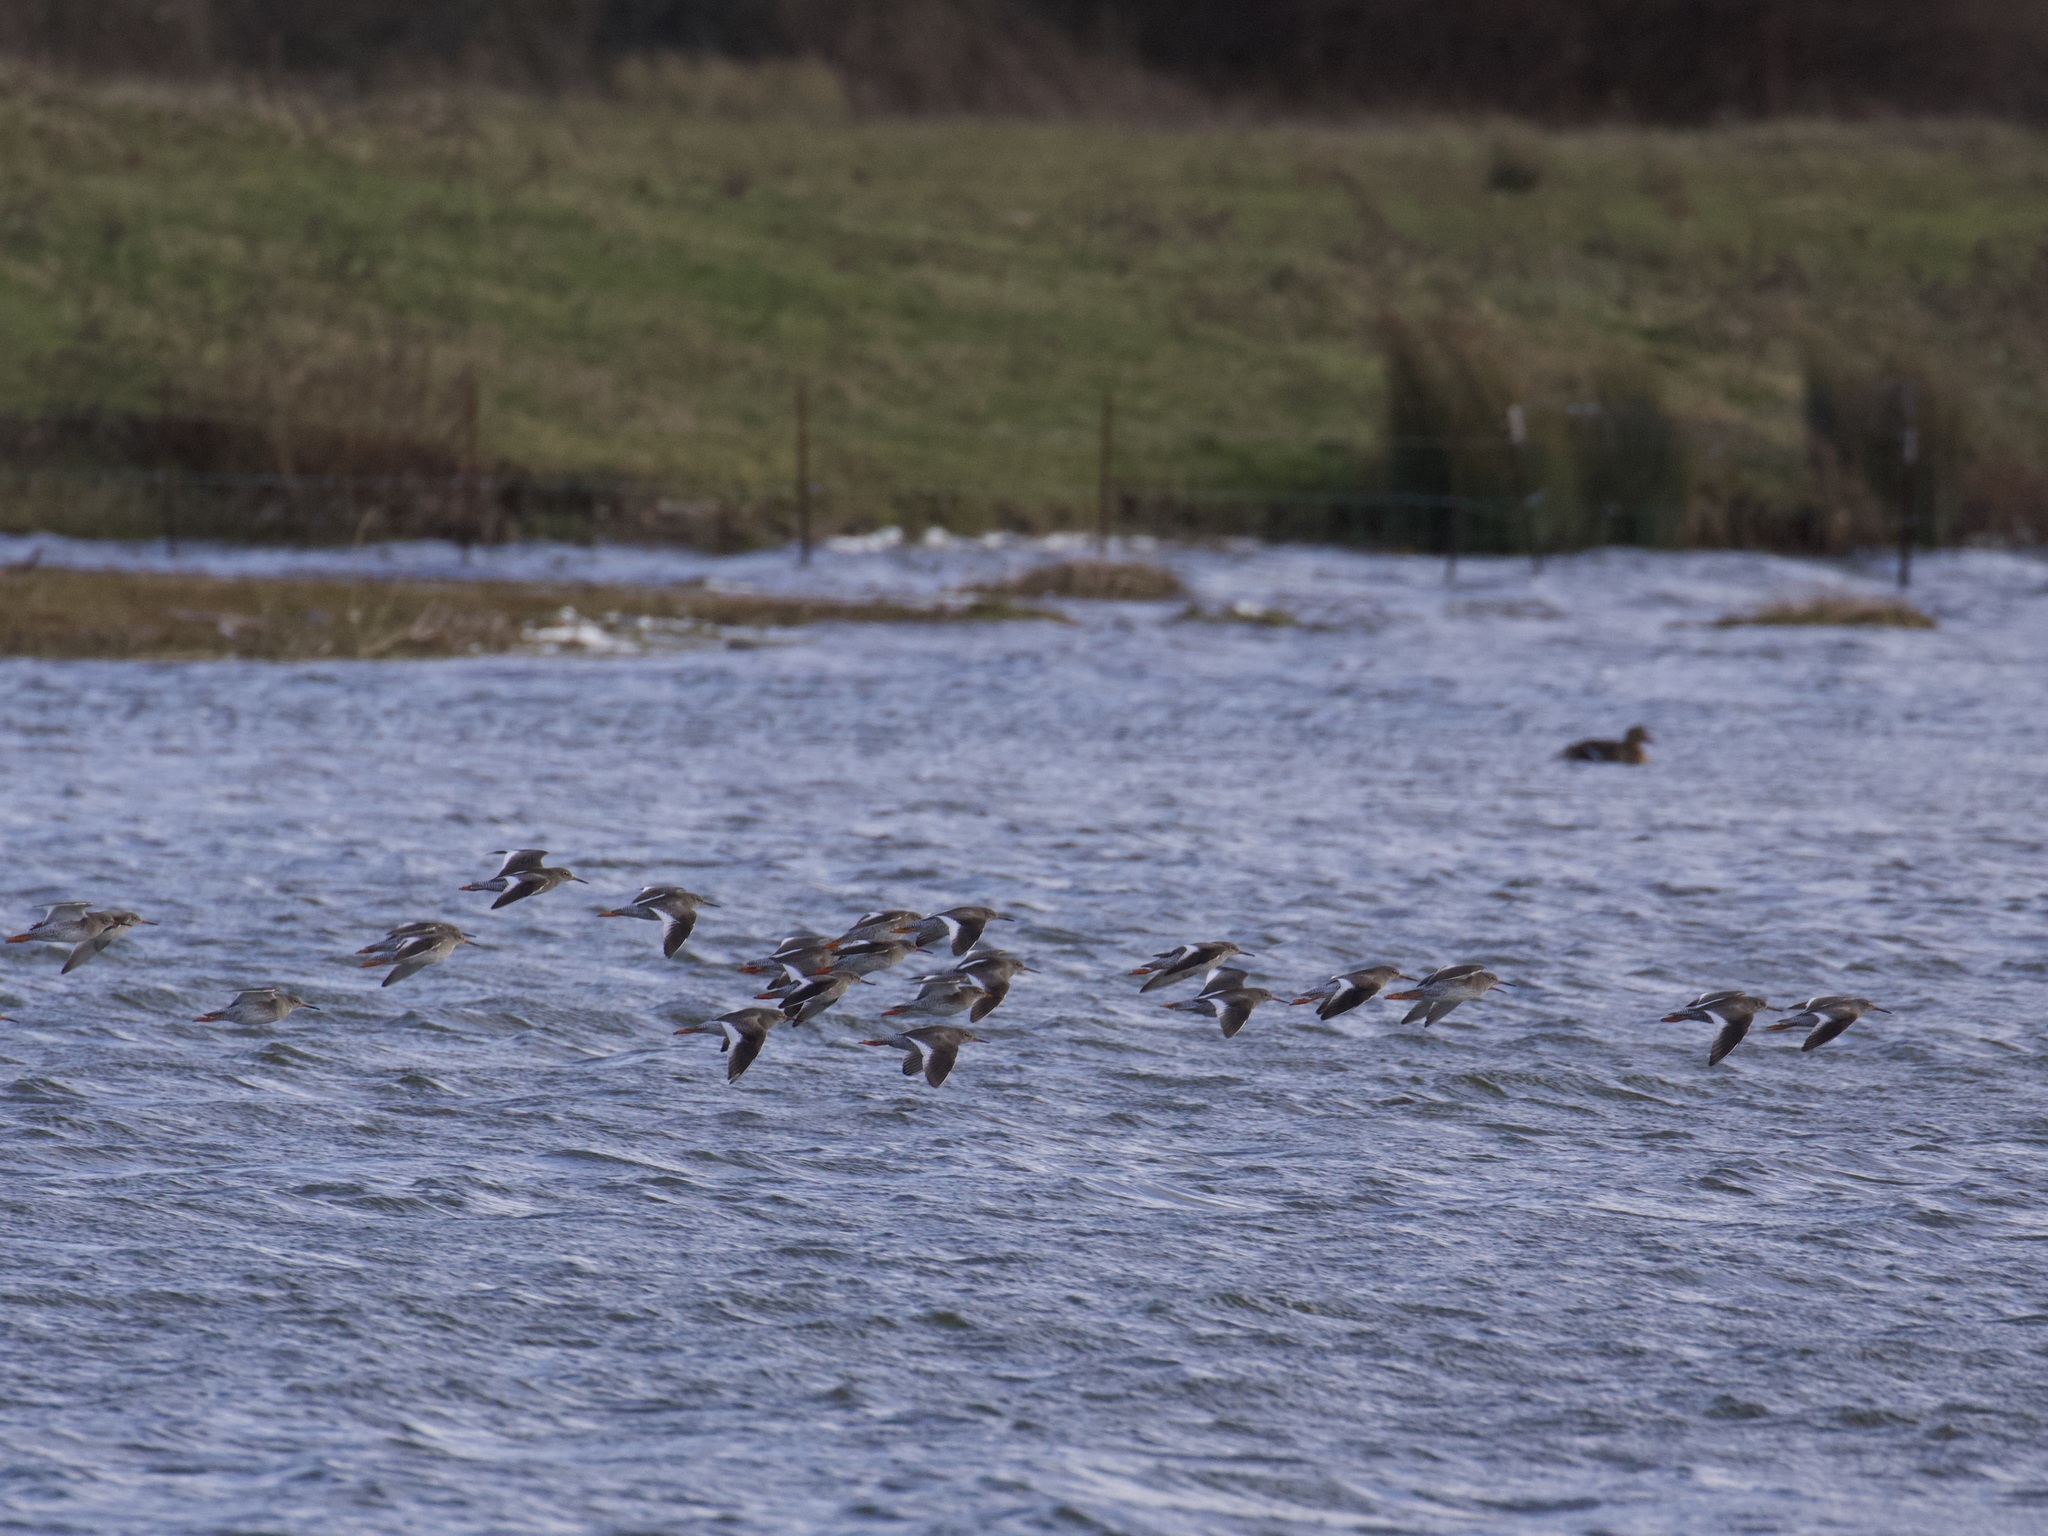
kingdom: Animalia
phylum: Chordata
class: Aves
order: Charadriiformes
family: Scolopacidae
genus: Tringa
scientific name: Tringa totanus
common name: Common redshank
